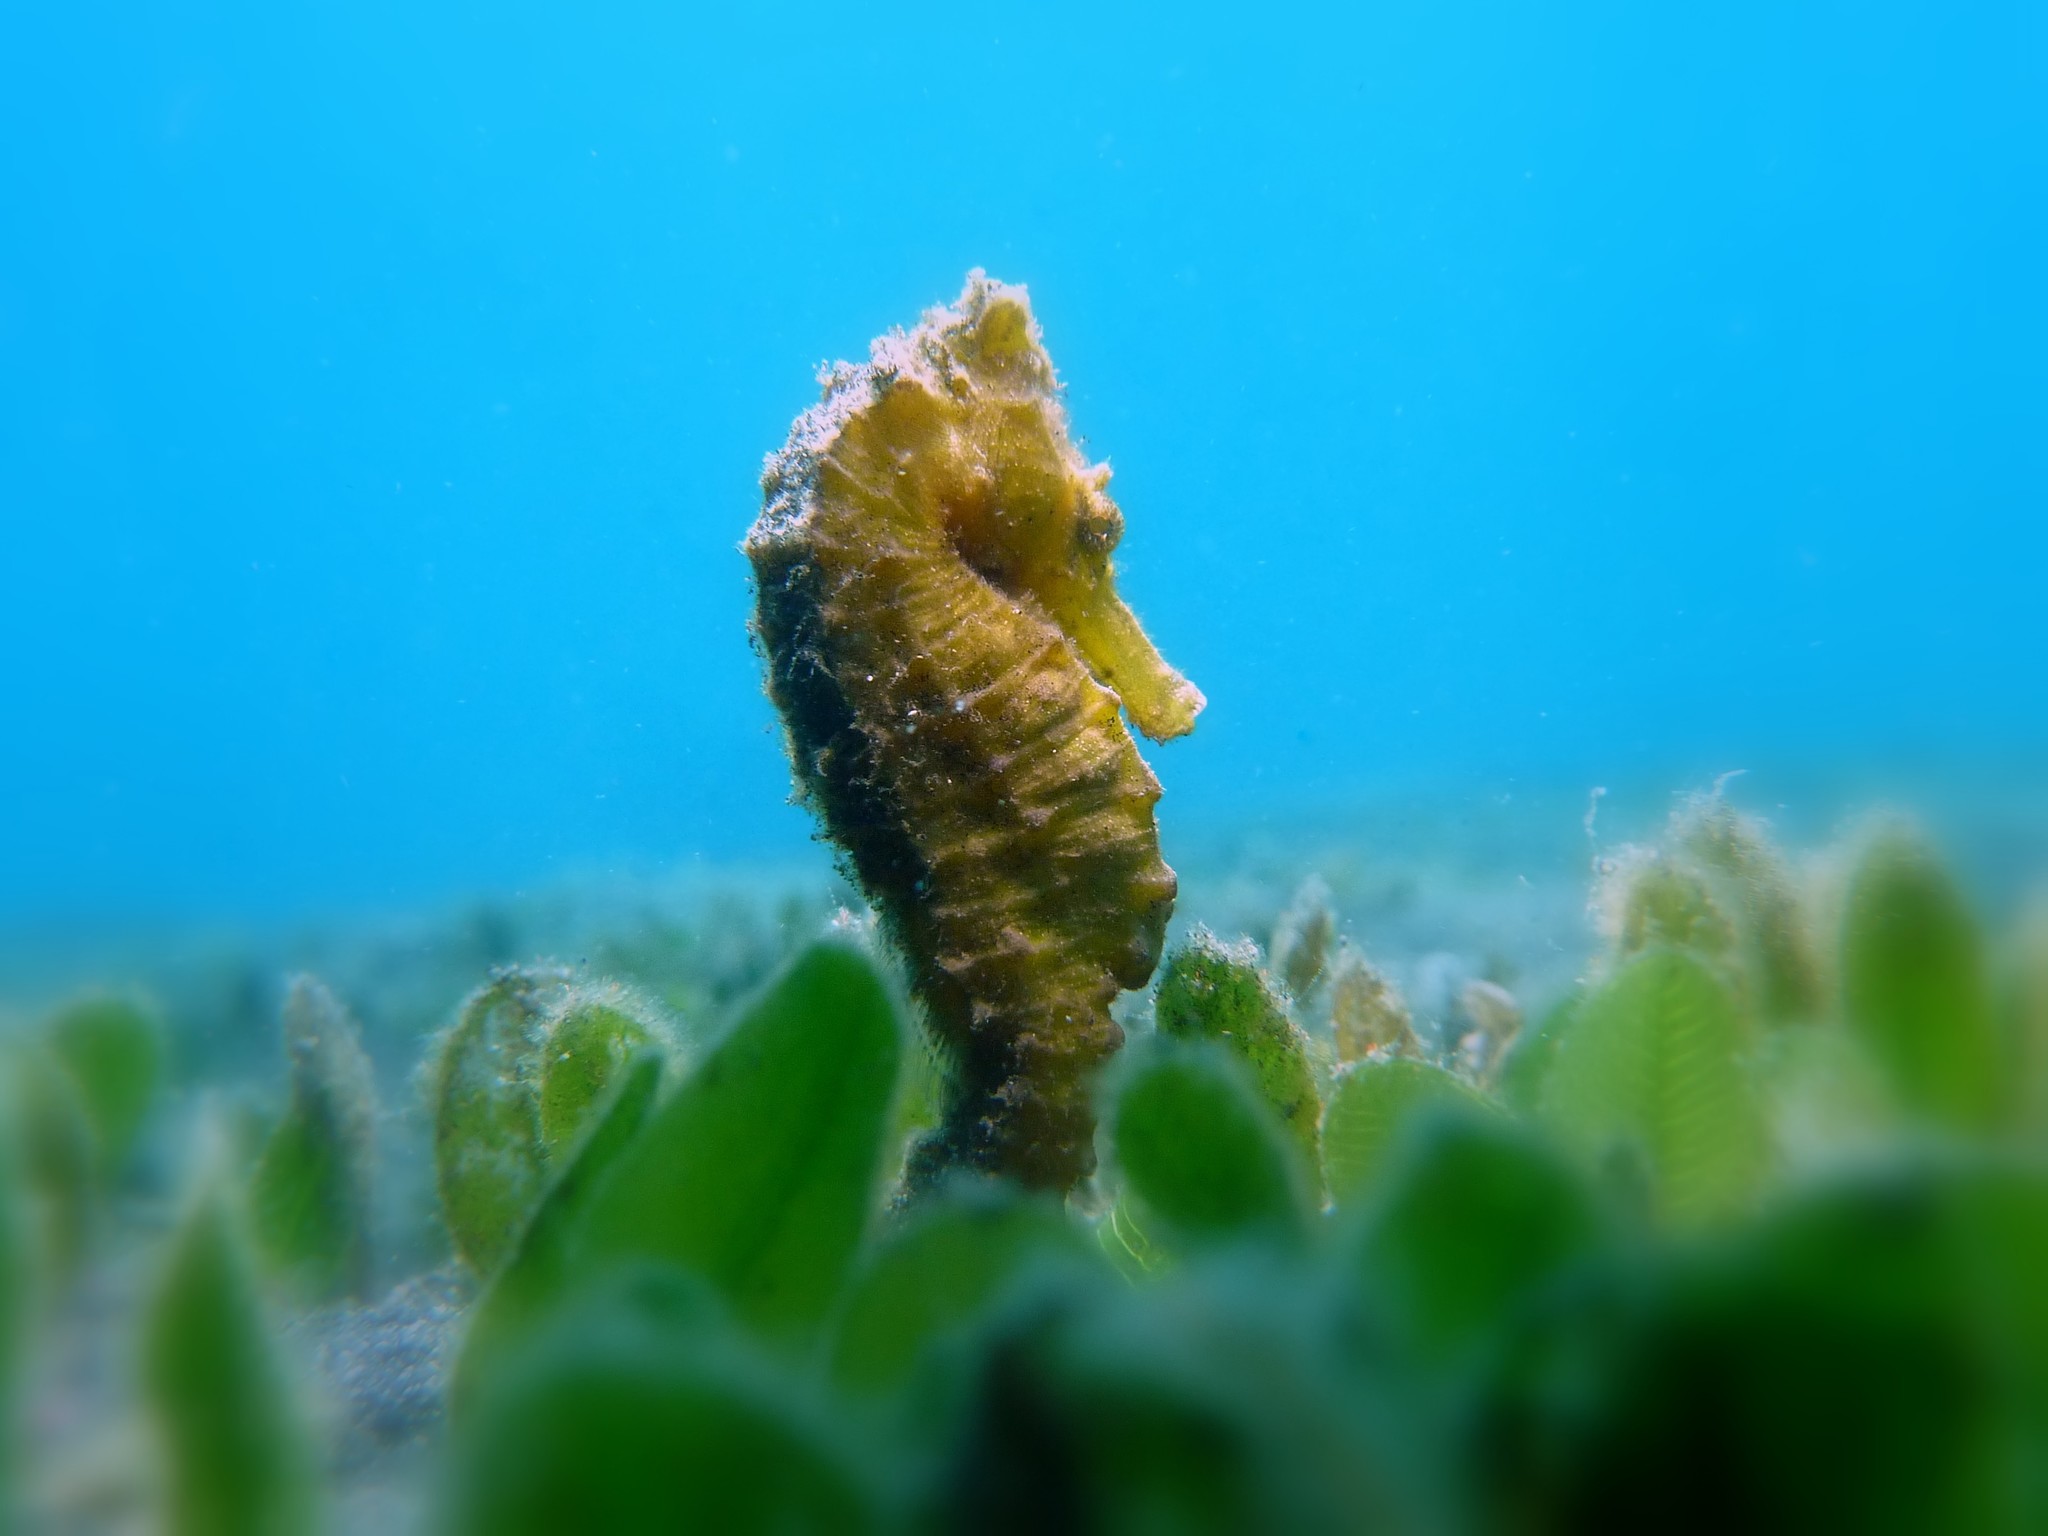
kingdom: Animalia
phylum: Chordata
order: Syngnathiformes
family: Syngnathidae
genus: Hippocampus
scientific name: Hippocampus kuda
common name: Spotted seahorse
